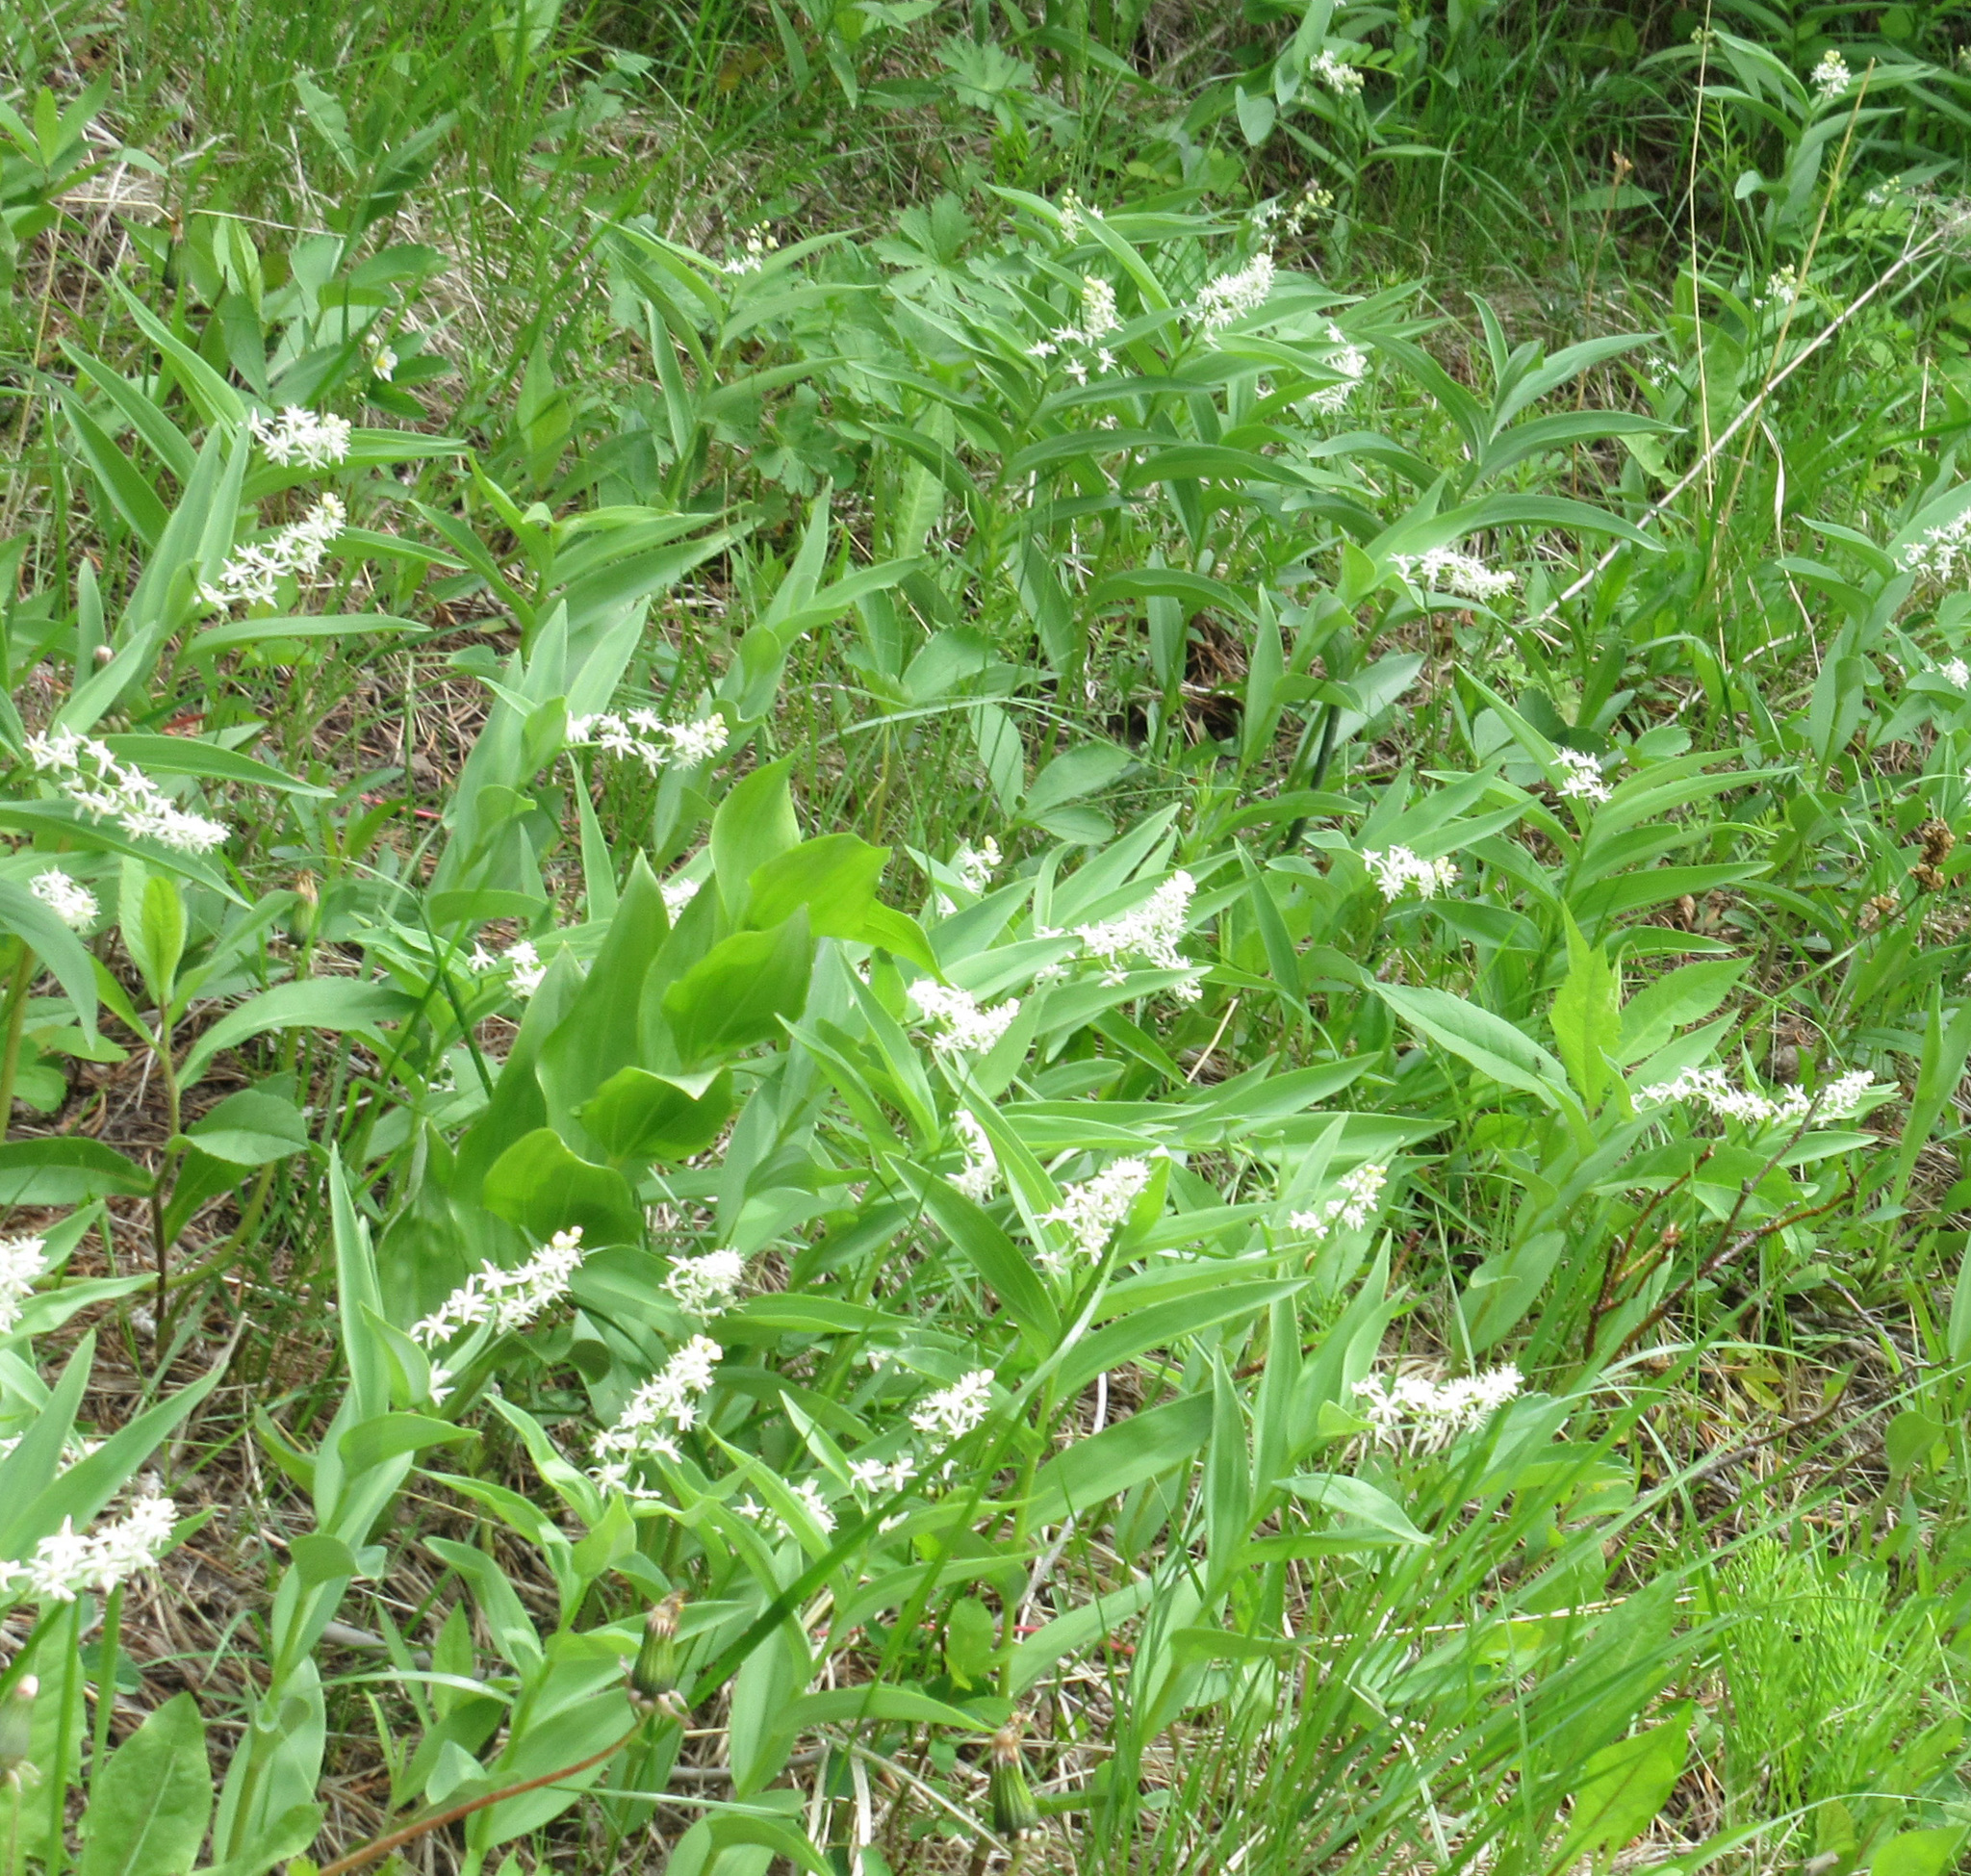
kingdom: Plantae
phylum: Tracheophyta
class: Liliopsida
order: Asparagales
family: Asparagaceae
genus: Maianthemum
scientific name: Maianthemum stellatum
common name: Little false solomon's seal
